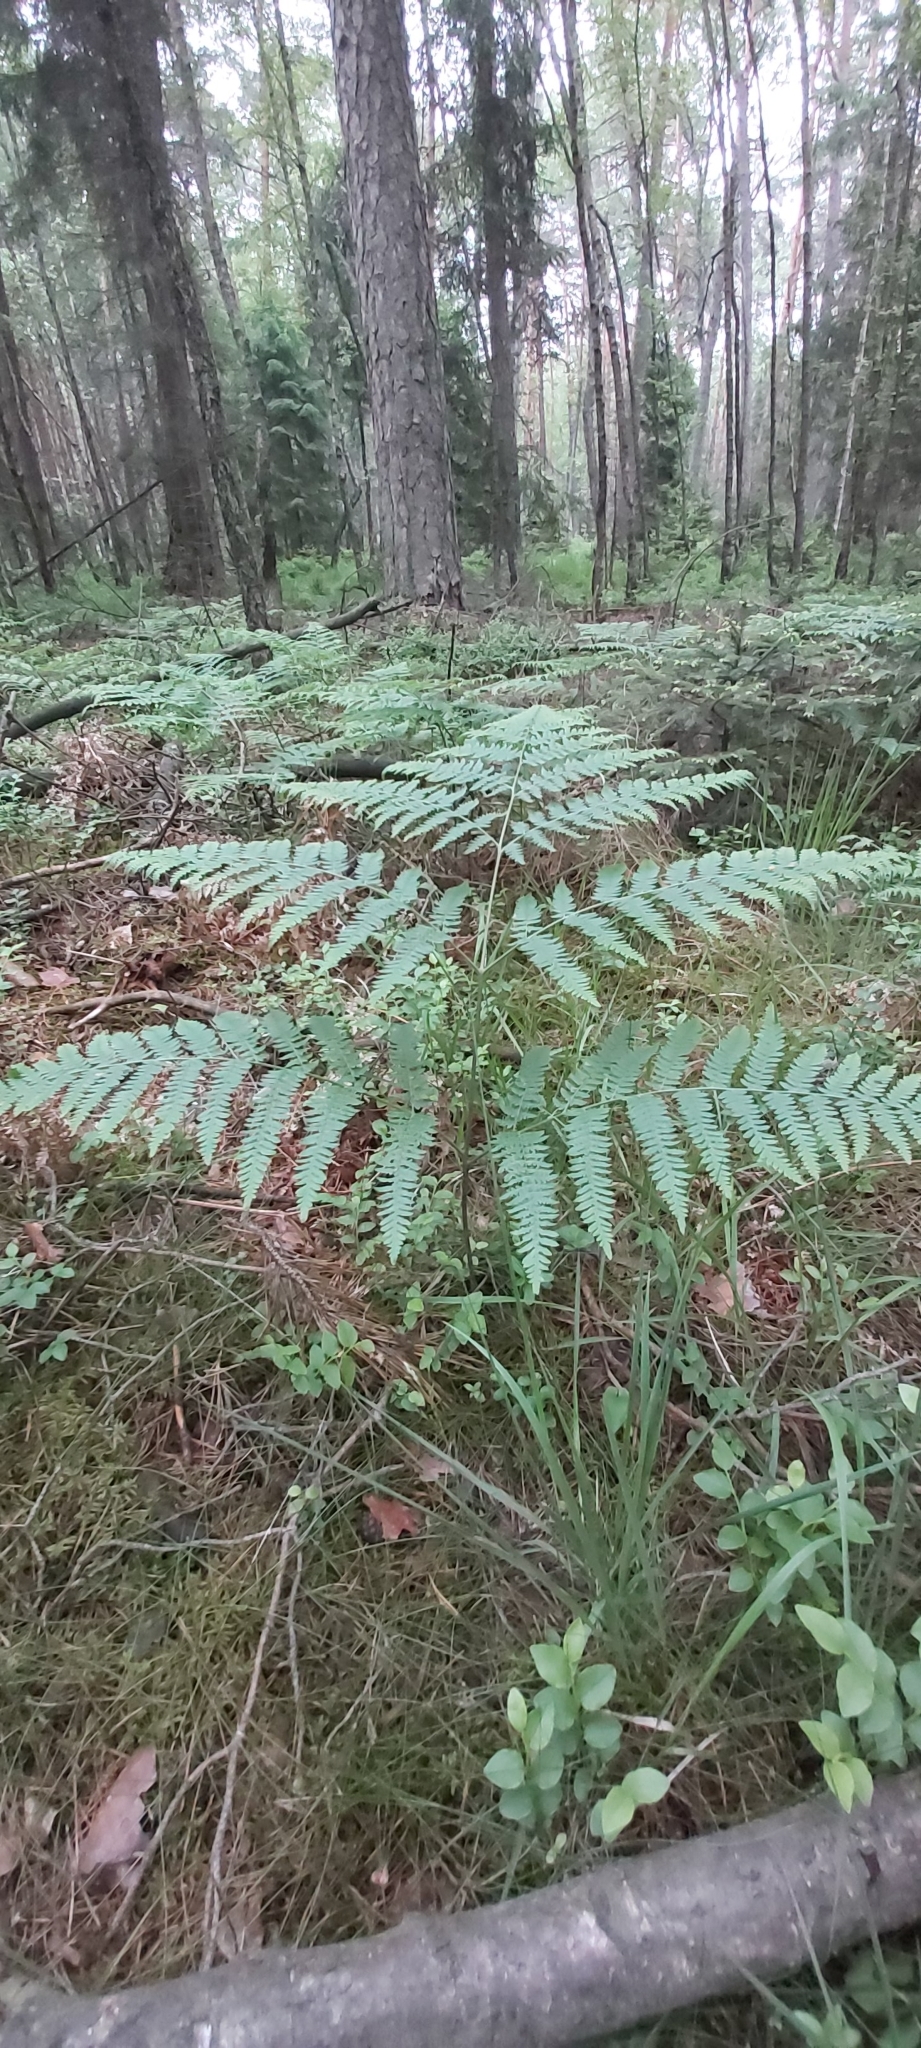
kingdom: Plantae
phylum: Tracheophyta
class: Polypodiopsida
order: Polypodiales
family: Dennstaedtiaceae
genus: Pteridium
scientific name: Pteridium aquilinum
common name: Bracken
